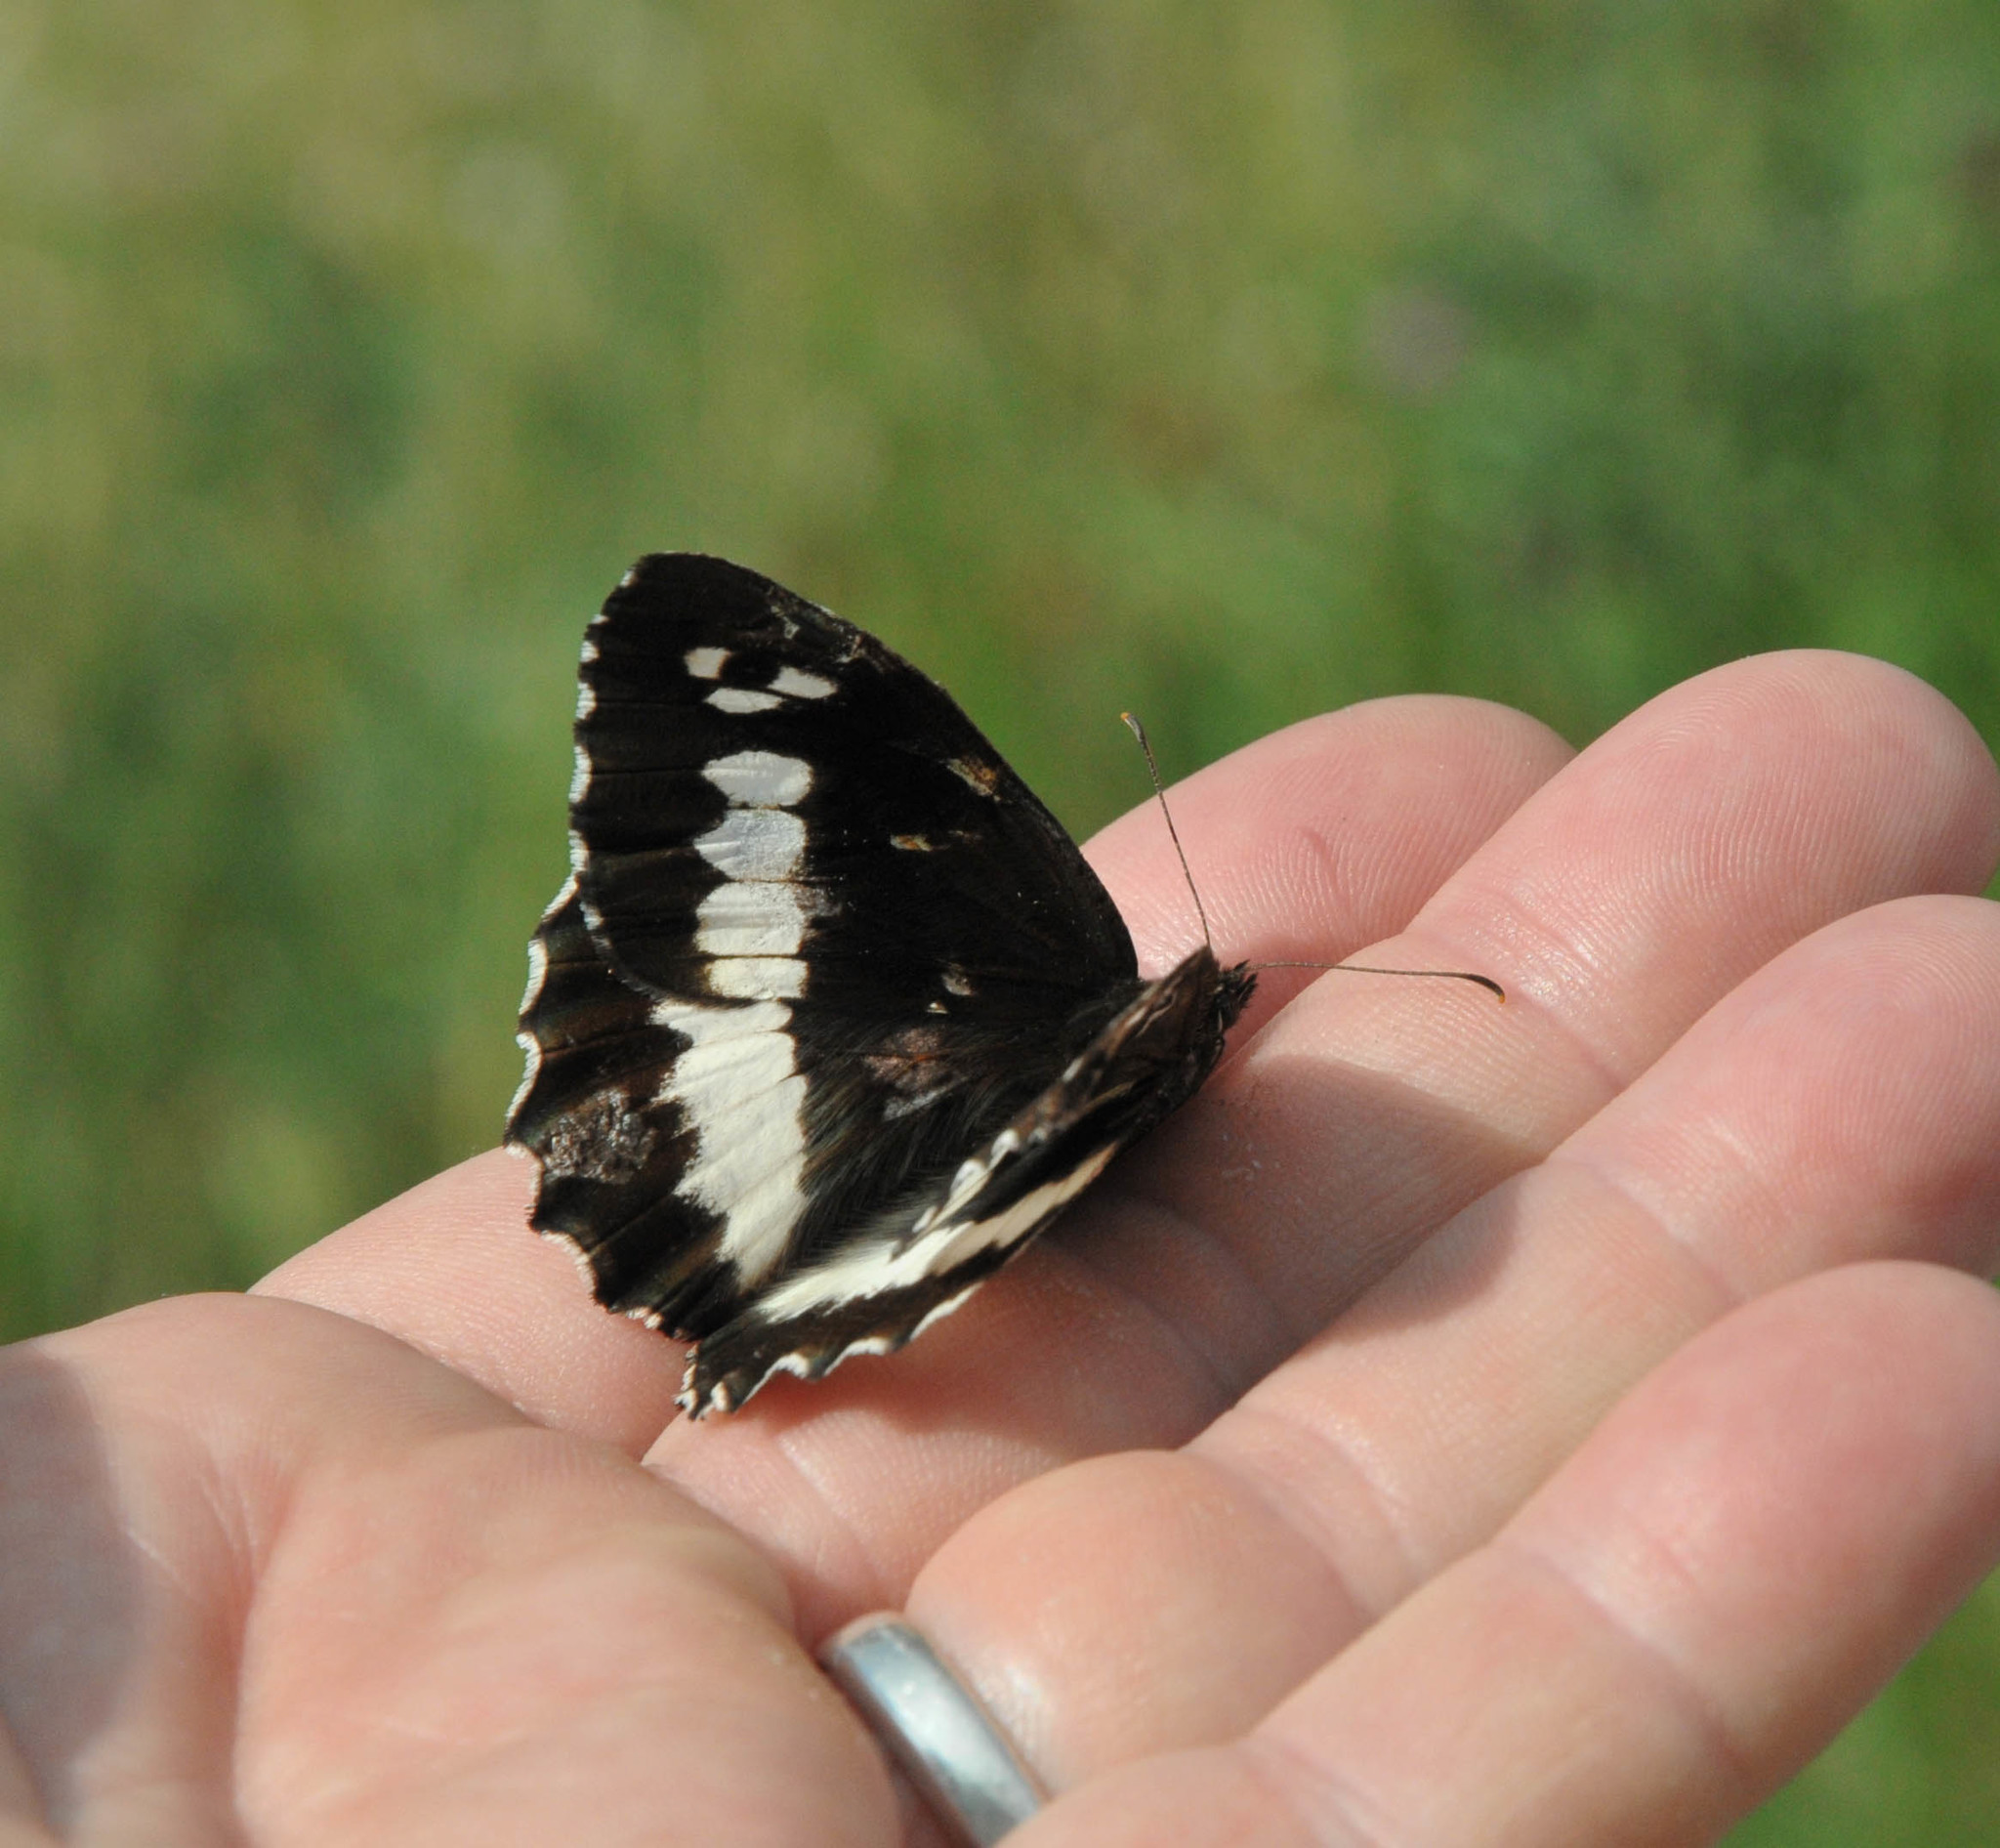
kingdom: Animalia
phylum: Arthropoda
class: Insecta
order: Lepidoptera
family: Lycaenidae
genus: Loweia
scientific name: Loweia tityrus
